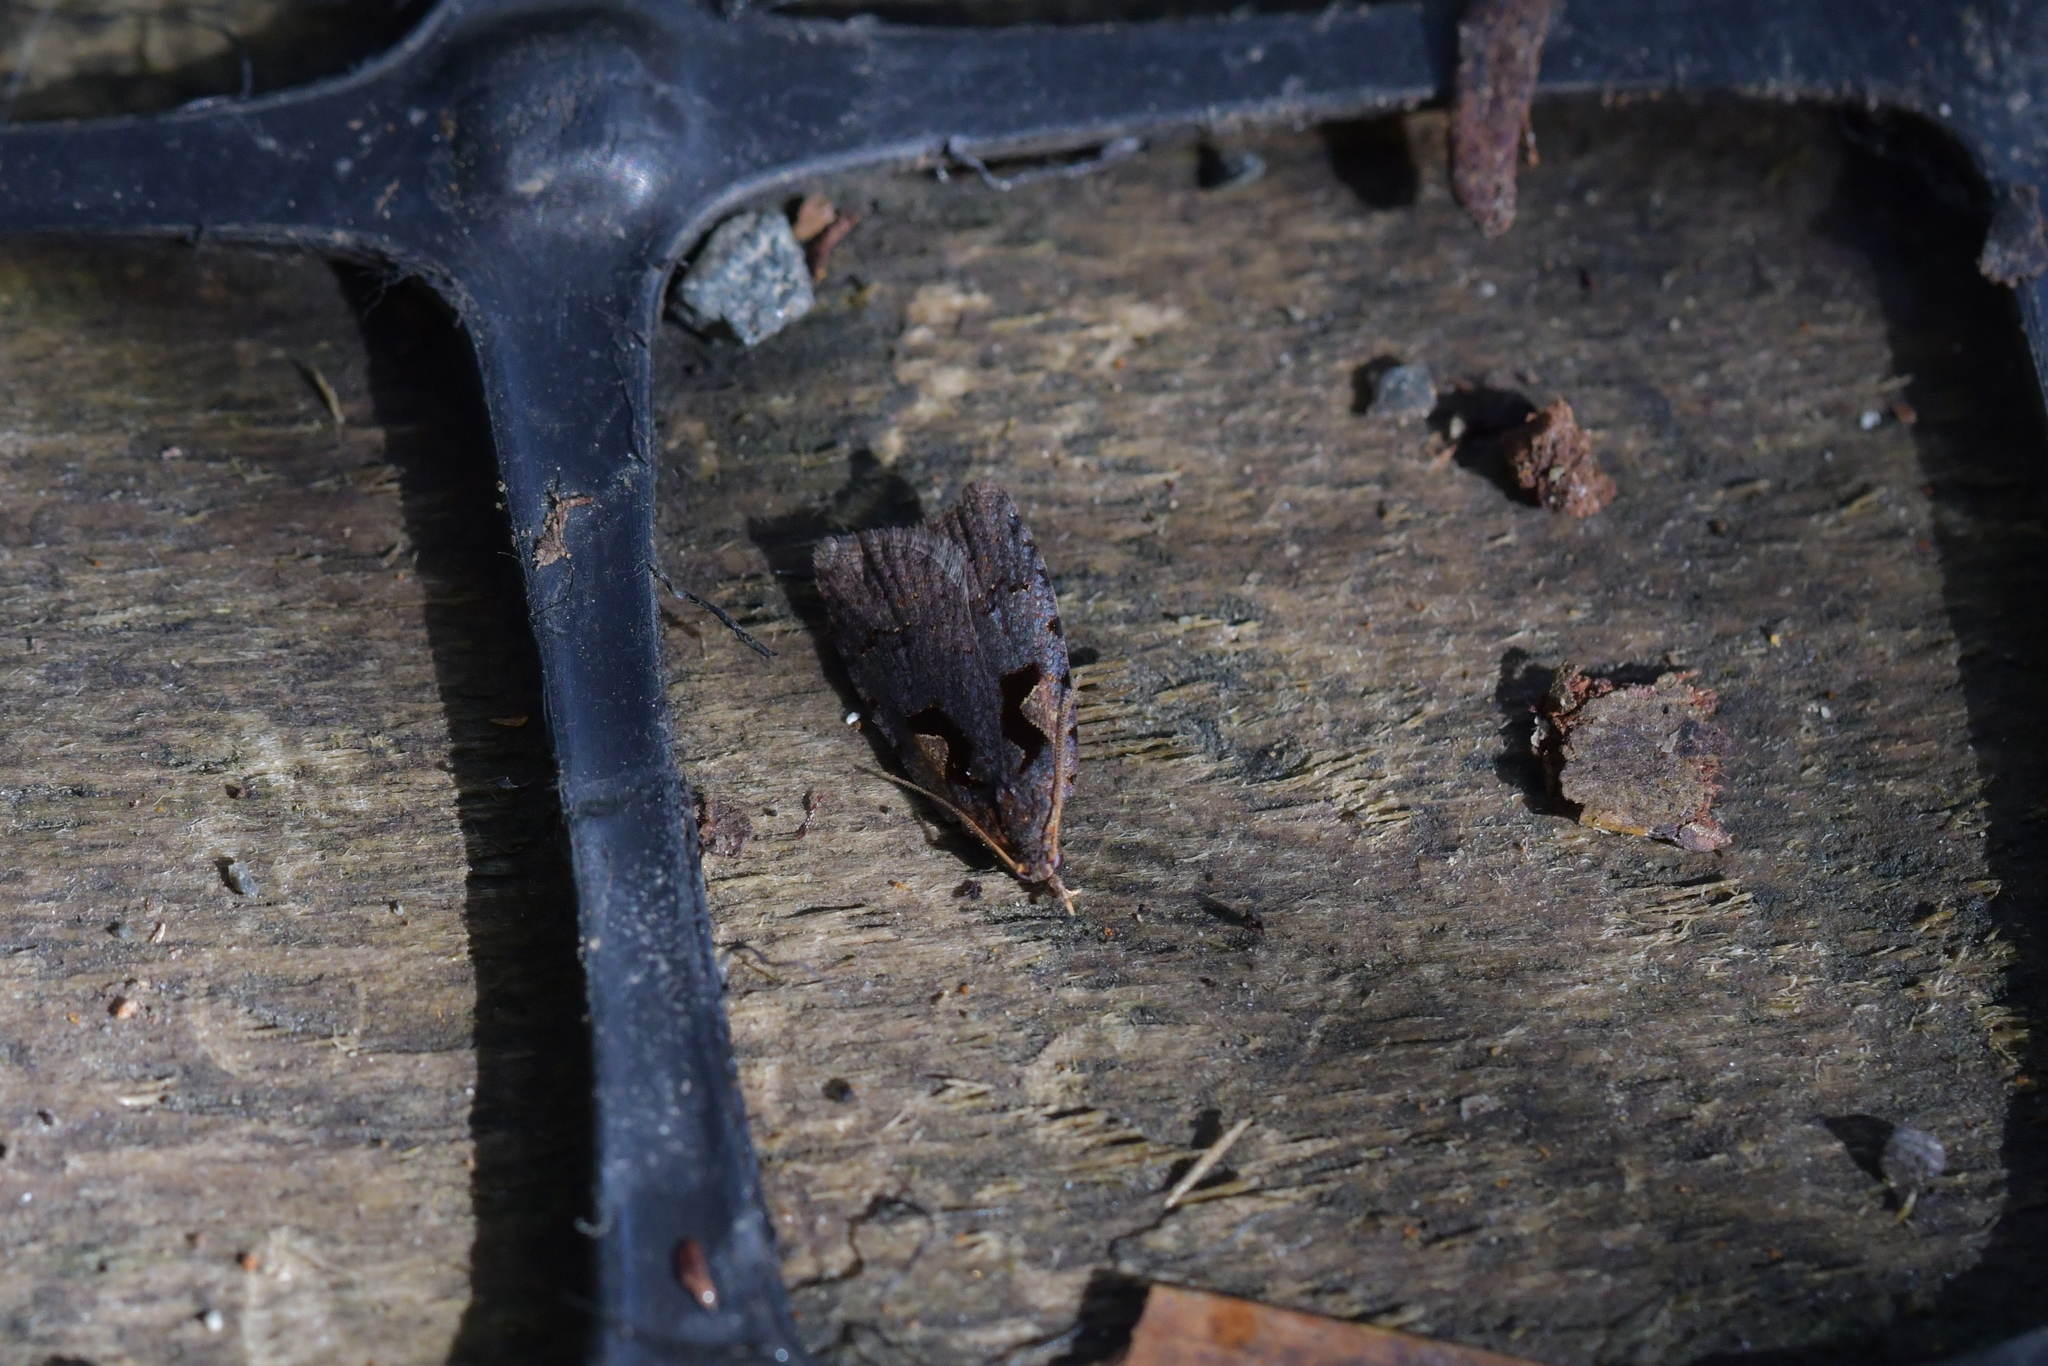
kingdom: Animalia
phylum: Arthropoda
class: Insecta
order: Lepidoptera
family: Tortricidae
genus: Cnephasia
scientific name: Cnephasia jactatana
